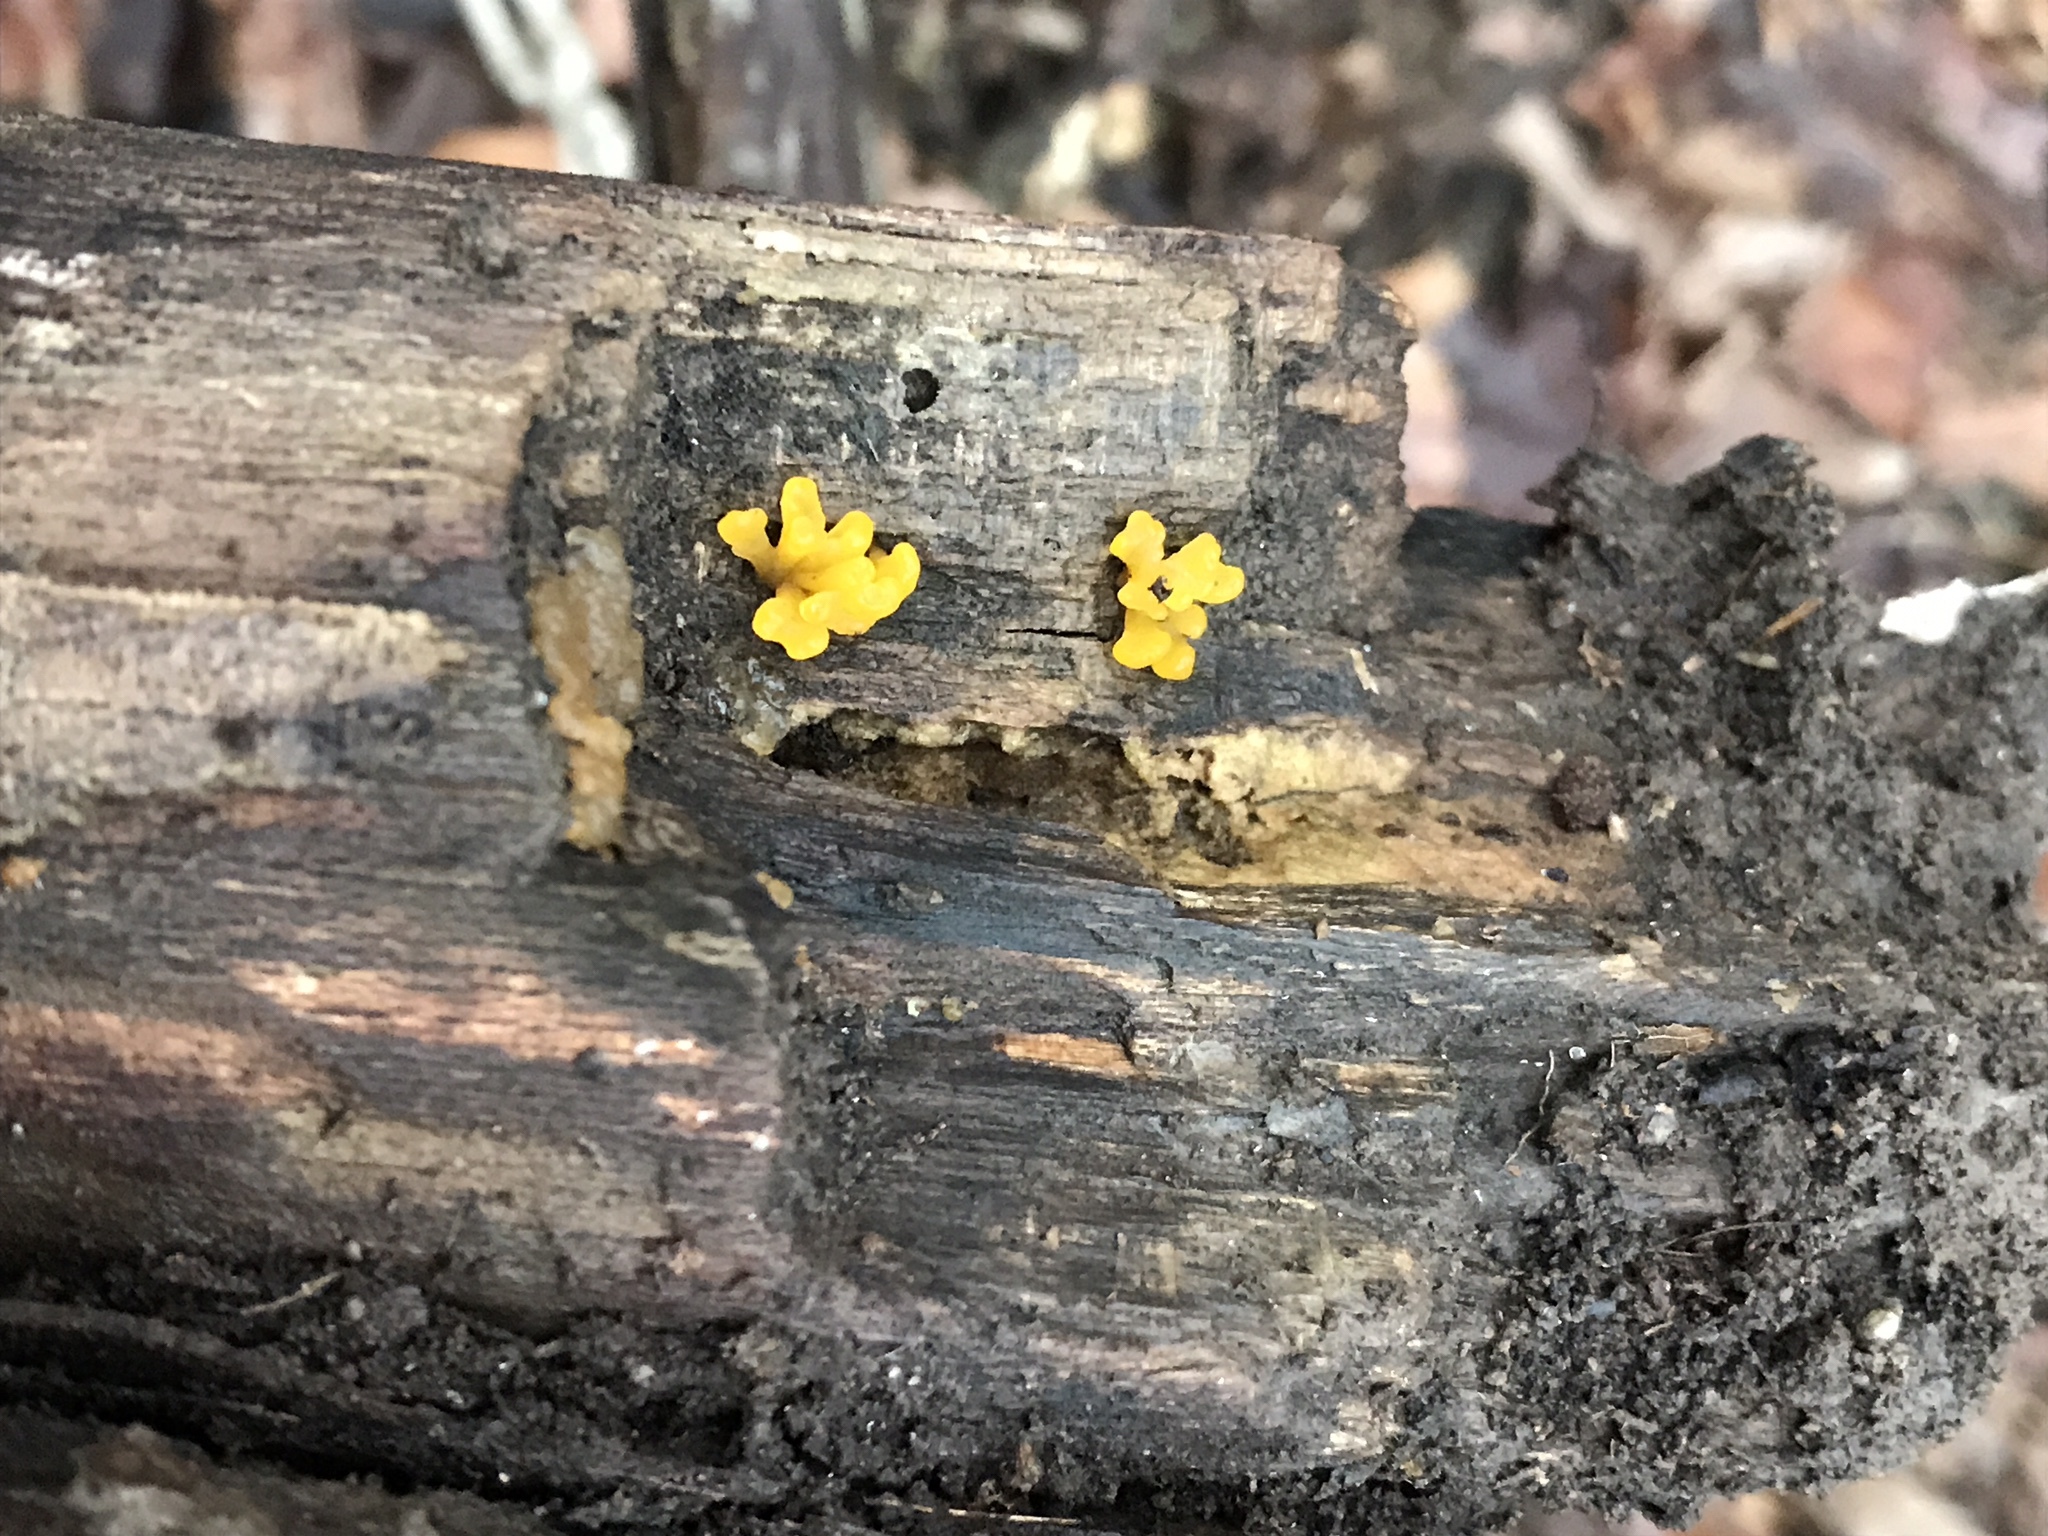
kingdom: Fungi
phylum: Basidiomycota
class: Dacrymycetes
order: Dacrymycetales
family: Dacrymycetaceae
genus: Dacrymyces
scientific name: Dacrymyces chrysospermus
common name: Orange jelly spot
